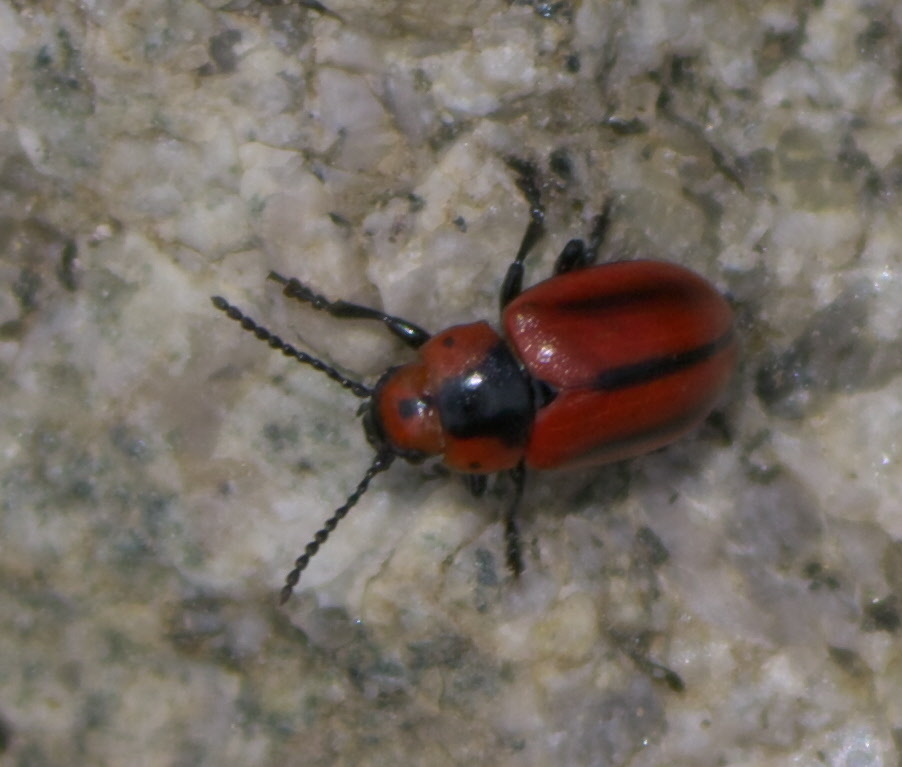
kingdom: Animalia
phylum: Arthropoda
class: Insecta
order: Coleoptera
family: Chrysomelidae
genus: Entomoscelis
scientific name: Entomoscelis americana
